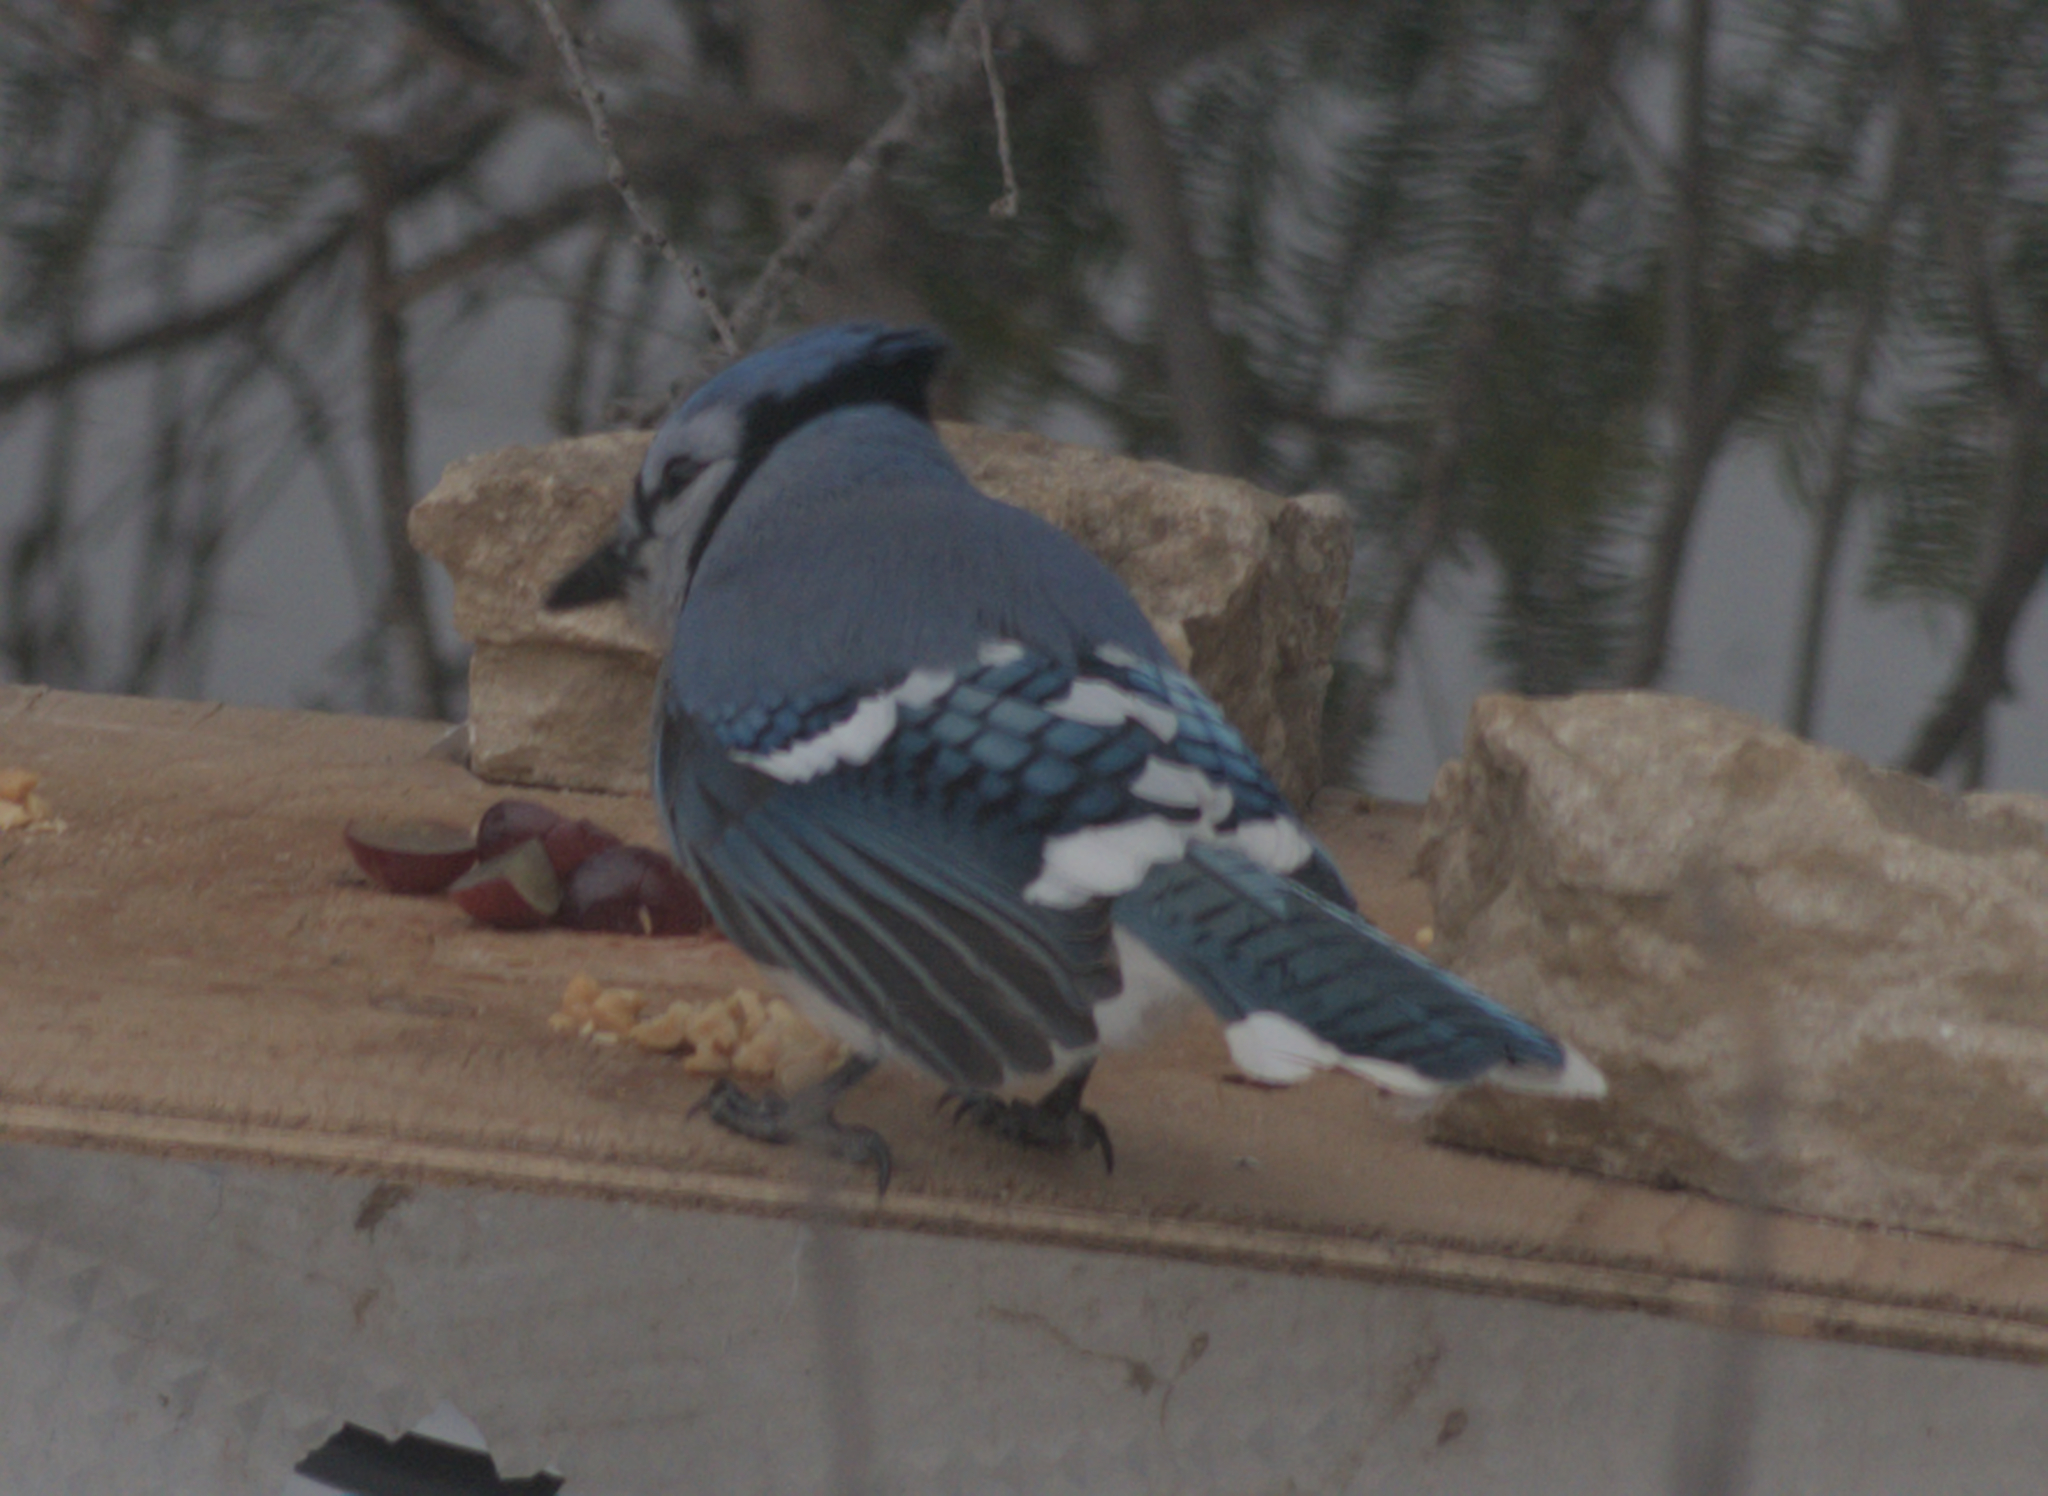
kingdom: Animalia
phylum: Chordata
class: Aves
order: Passeriformes
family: Corvidae
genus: Cyanocitta
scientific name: Cyanocitta cristata
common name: Blue jay
